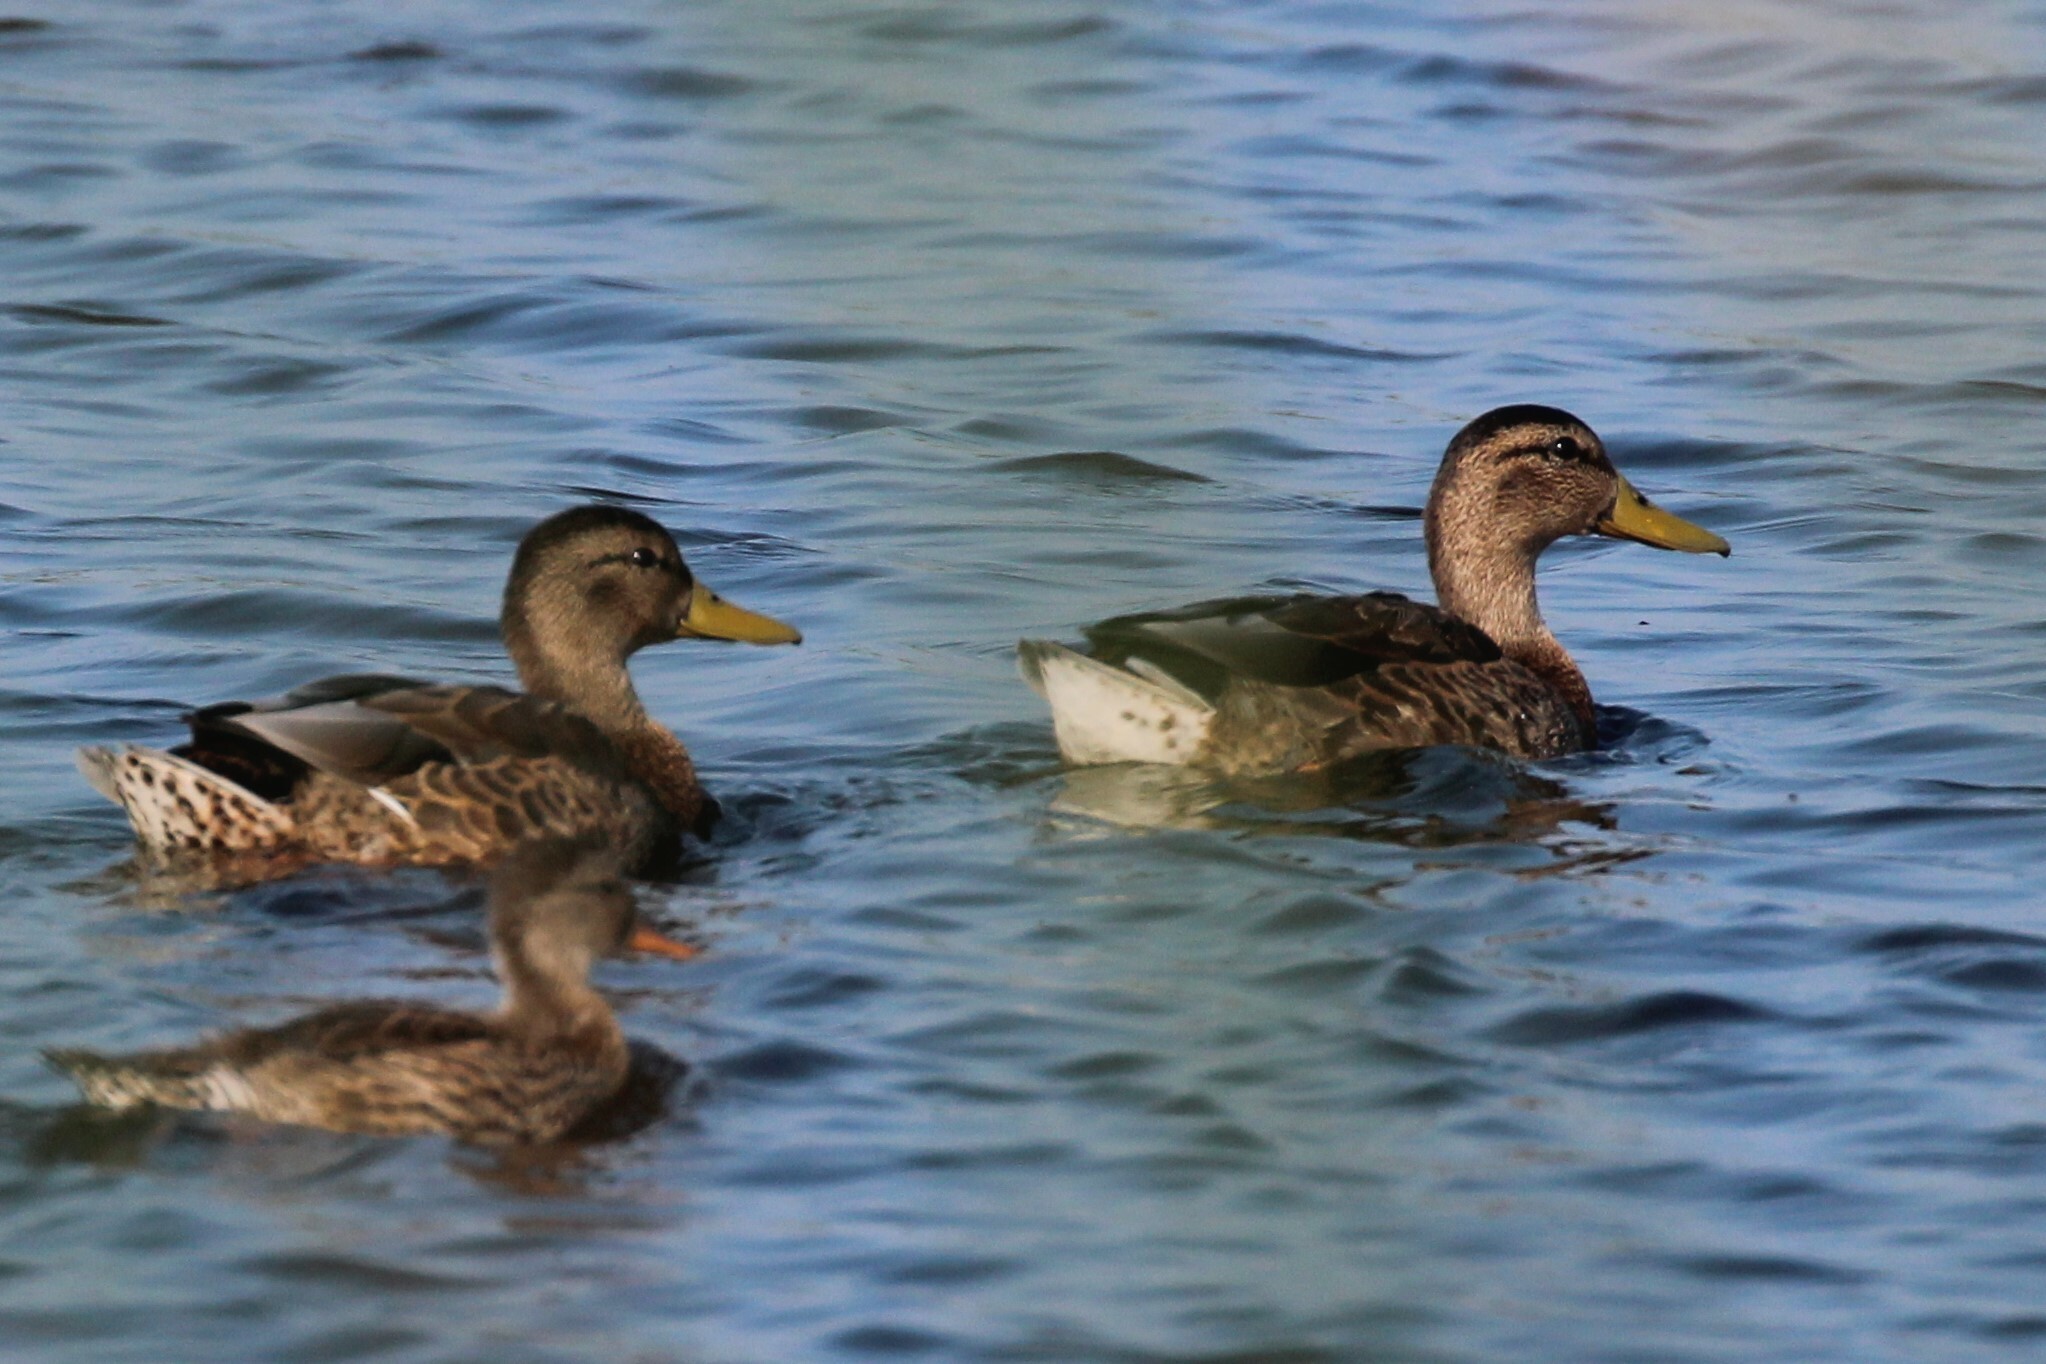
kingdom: Animalia
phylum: Chordata
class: Aves
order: Anseriformes
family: Anatidae
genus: Anas
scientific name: Anas platyrhynchos
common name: Mallard
